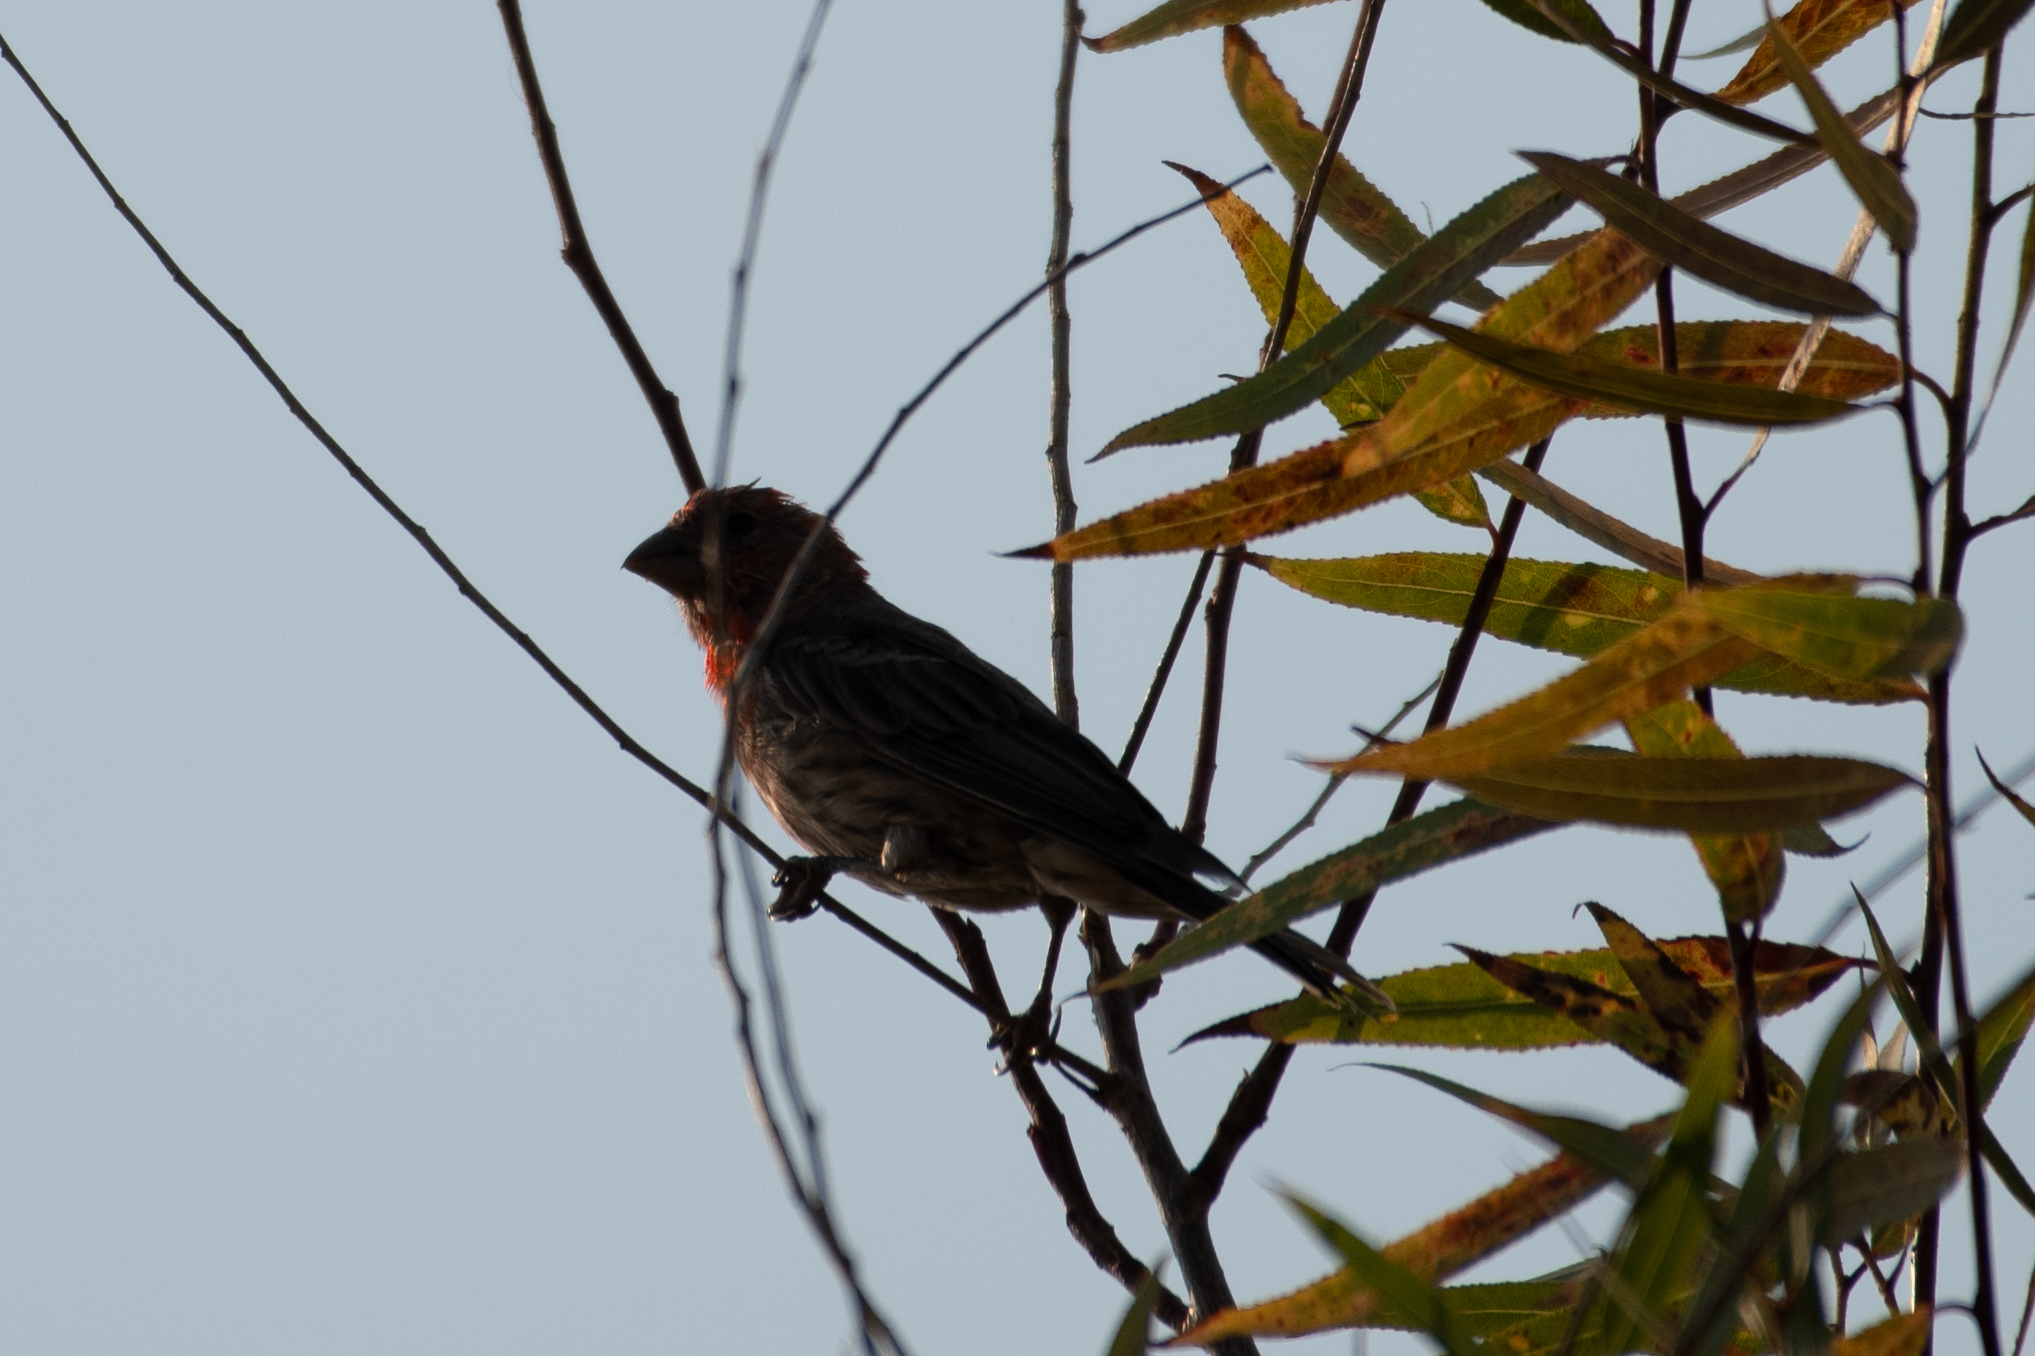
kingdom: Animalia
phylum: Chordata
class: Aves
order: Passeriformes
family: Fringillidae
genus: Haemorhous
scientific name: Haemorhous mexicanus
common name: House finch
